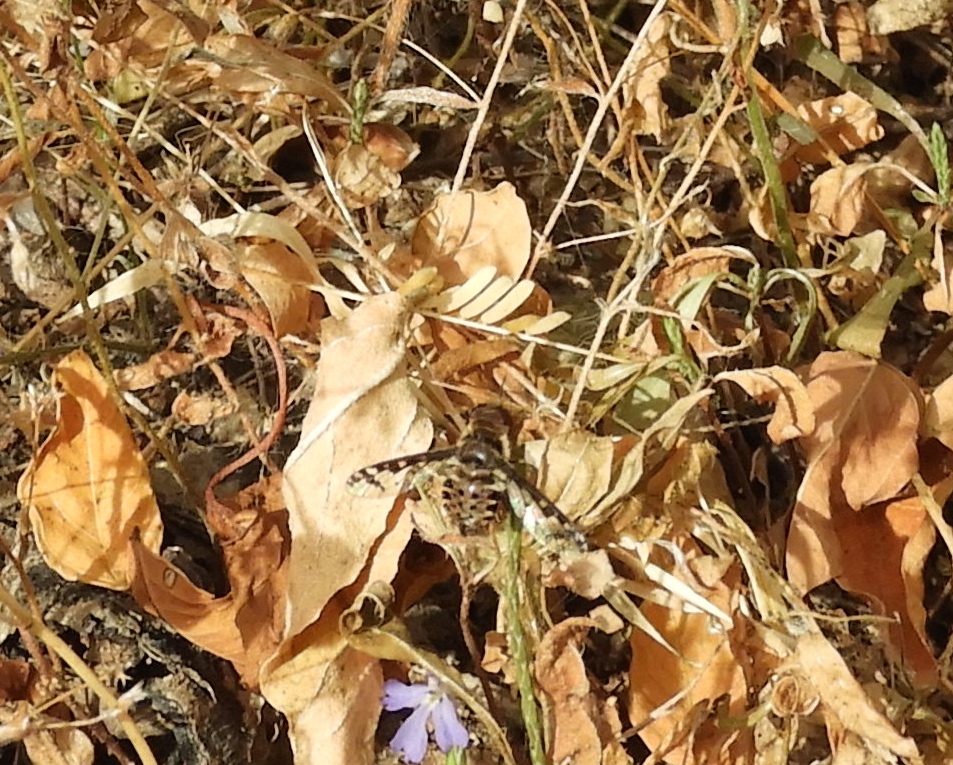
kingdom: Animalia
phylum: Arthropoda
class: Insecta
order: Diptera
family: Bombyliidae
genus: Lepidanthrax
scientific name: Lepidanthrax
